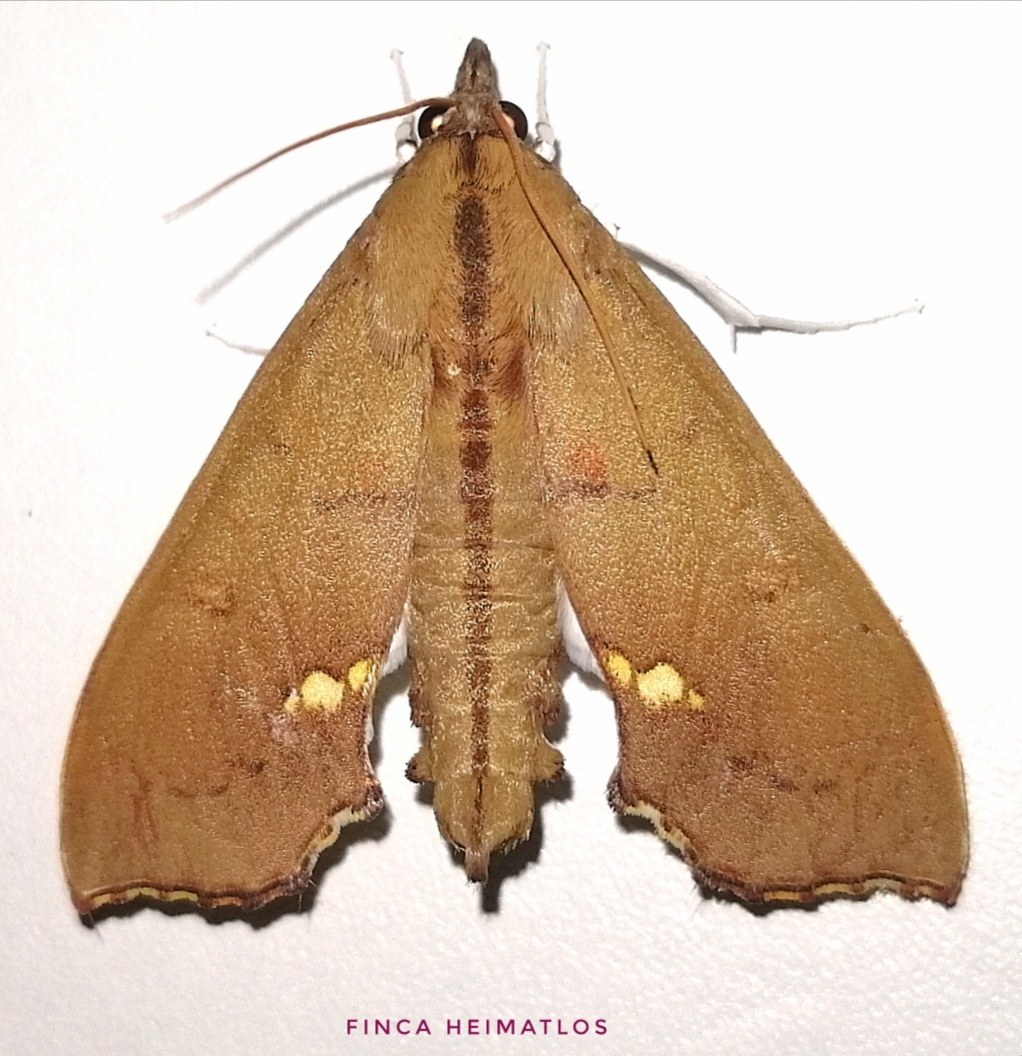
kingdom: Animalia
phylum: Arthropoda
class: Insecta
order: Lepidoptera
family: Crambidae
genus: Liopasia
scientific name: Liopasia andrealis
